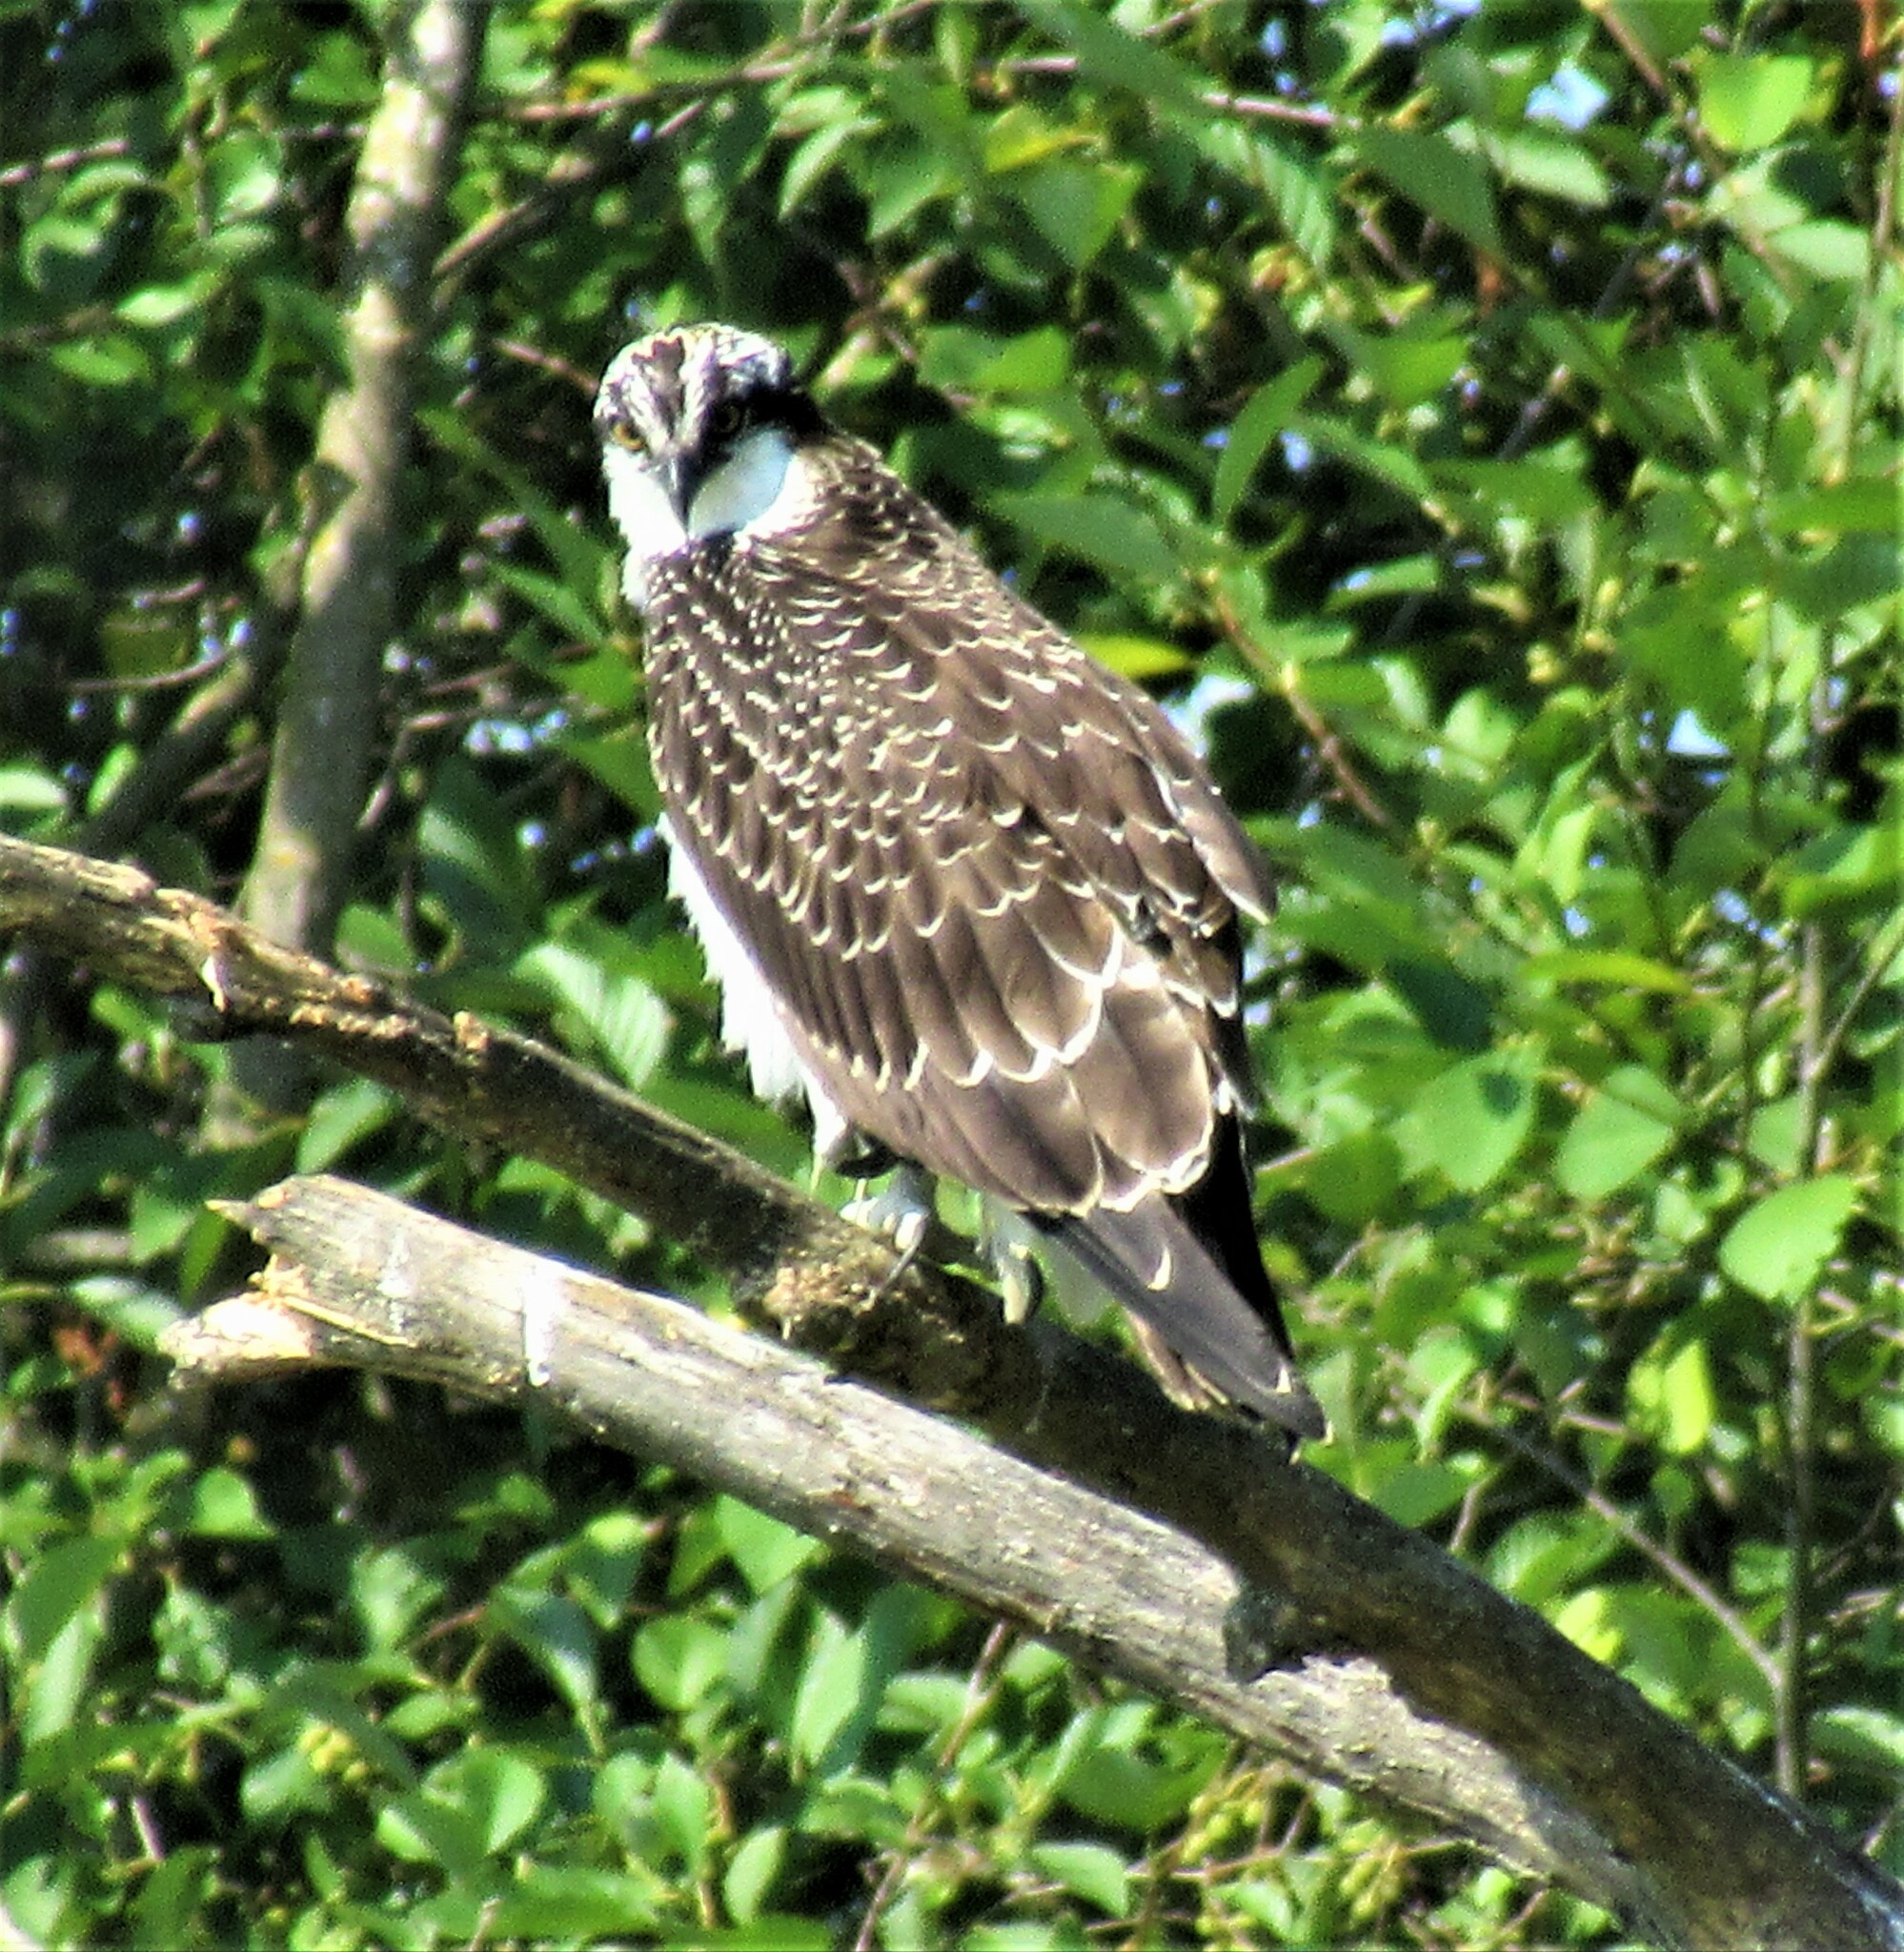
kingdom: Animalia
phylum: Chordata
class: Aves
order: Accipitriformes
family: Pandionidae
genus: Pandion
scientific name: Pandion haliaetus
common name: Osprey
